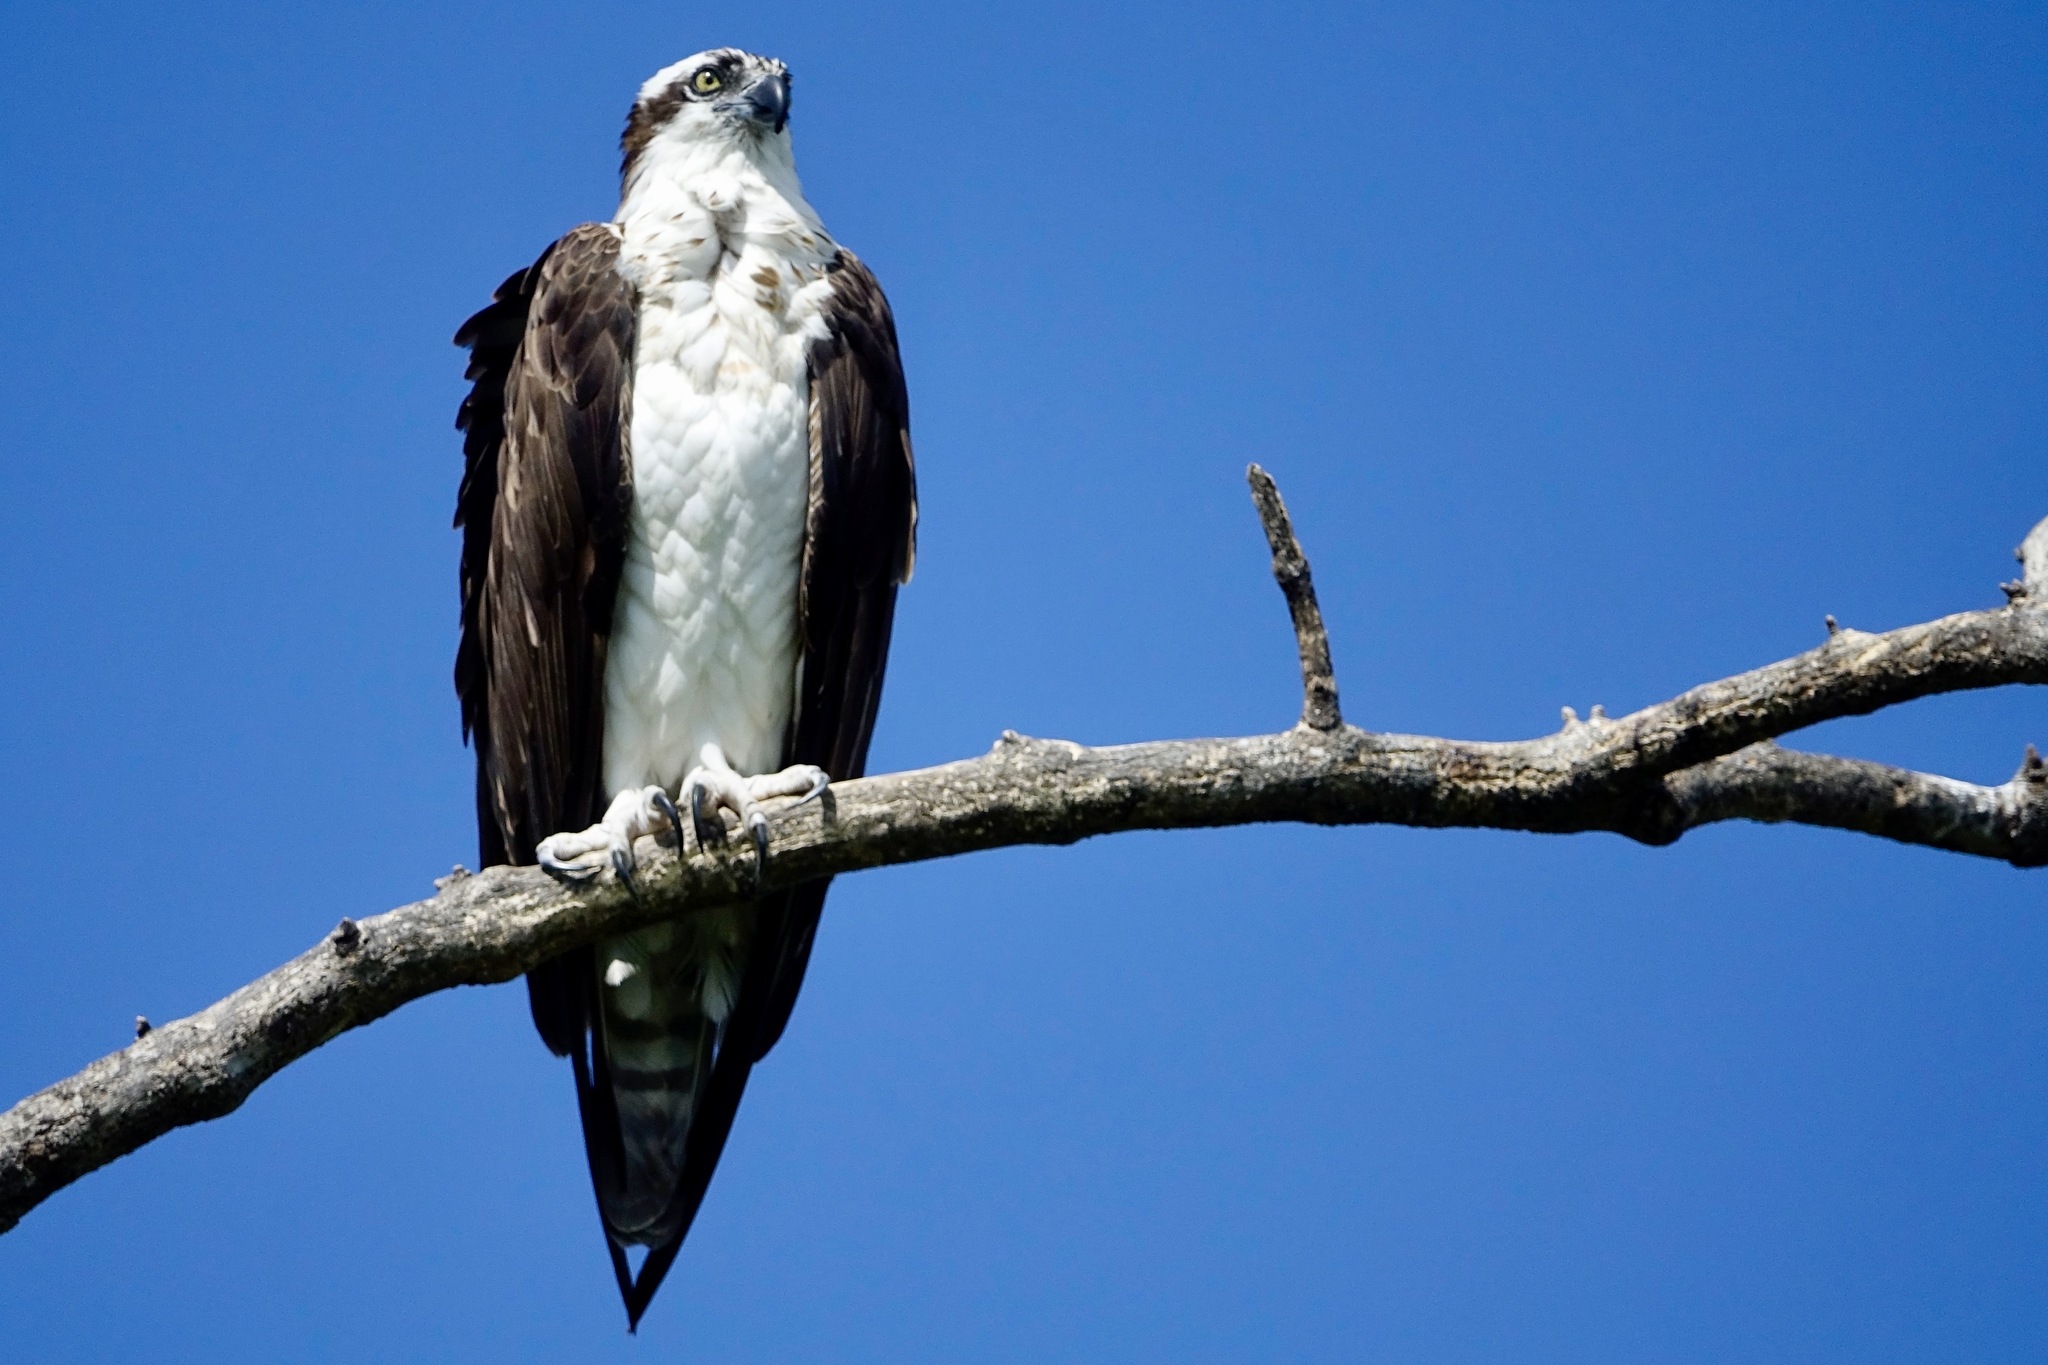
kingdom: Animalia
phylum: Chordata
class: Aves
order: Accipitriformes
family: Pandionidae
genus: Pandion
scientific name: Pandion haliaetus
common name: Osprey
